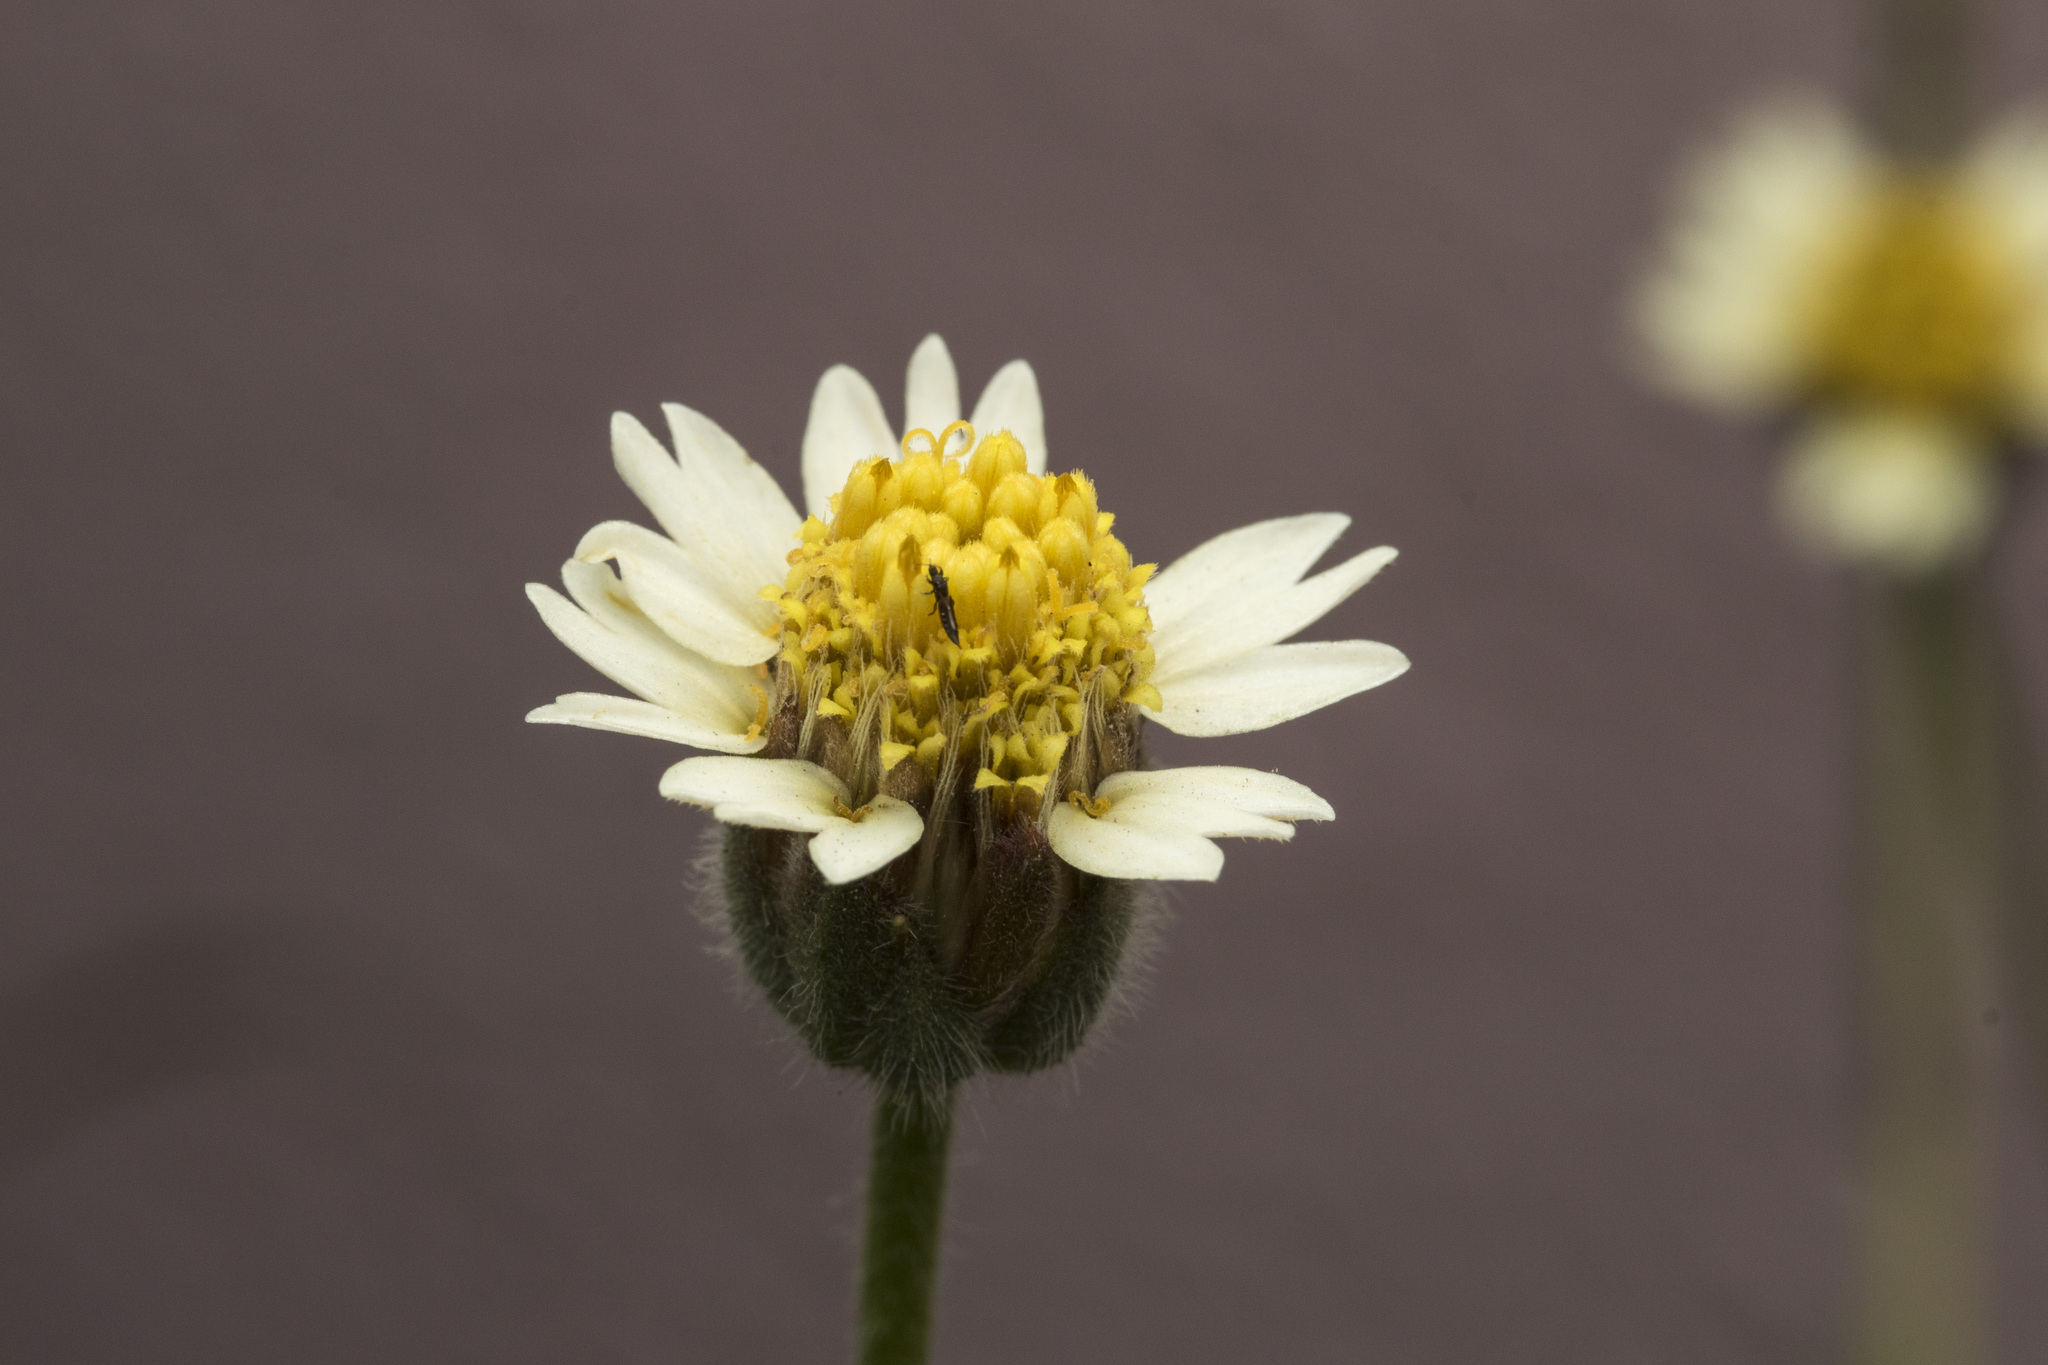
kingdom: Plantae
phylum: Tracheophyta
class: Magnoliopsida
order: Asterales
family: Asteraceae
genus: Tridax
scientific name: Tridax procumbens
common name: Coatbuttons
